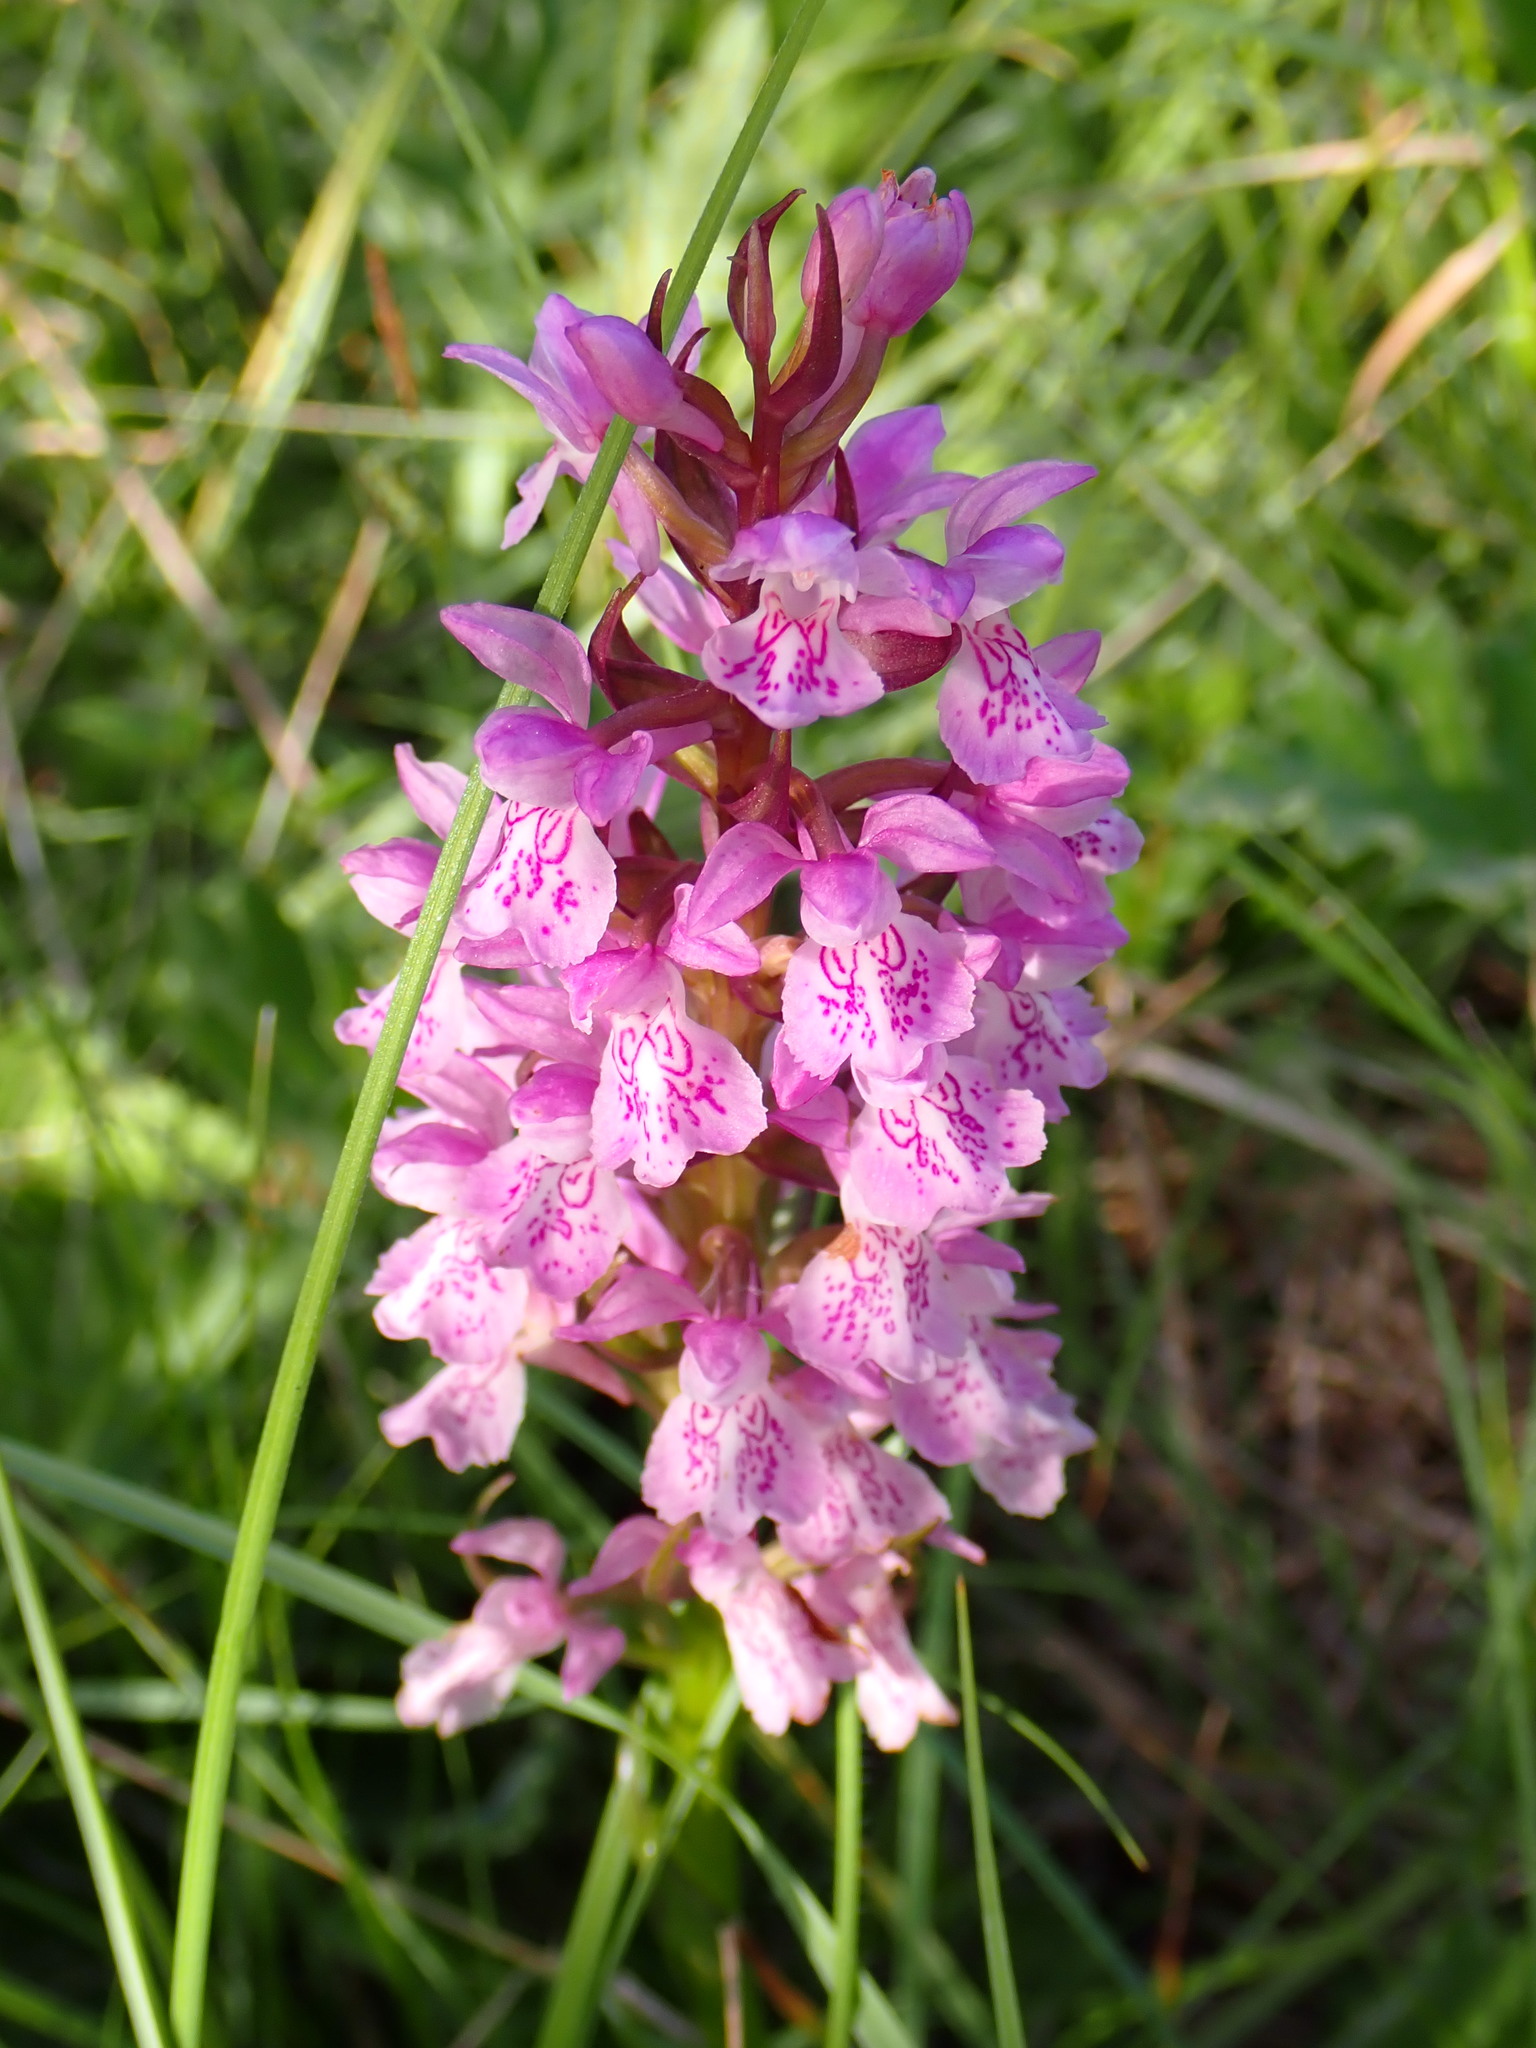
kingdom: Plantae
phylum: Tracheophyta
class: Liliopsida
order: Asparagales
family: Orchidaceae
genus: Dactylorhiza
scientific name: Dactylorhiza elata
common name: Stately dactylorhiza
